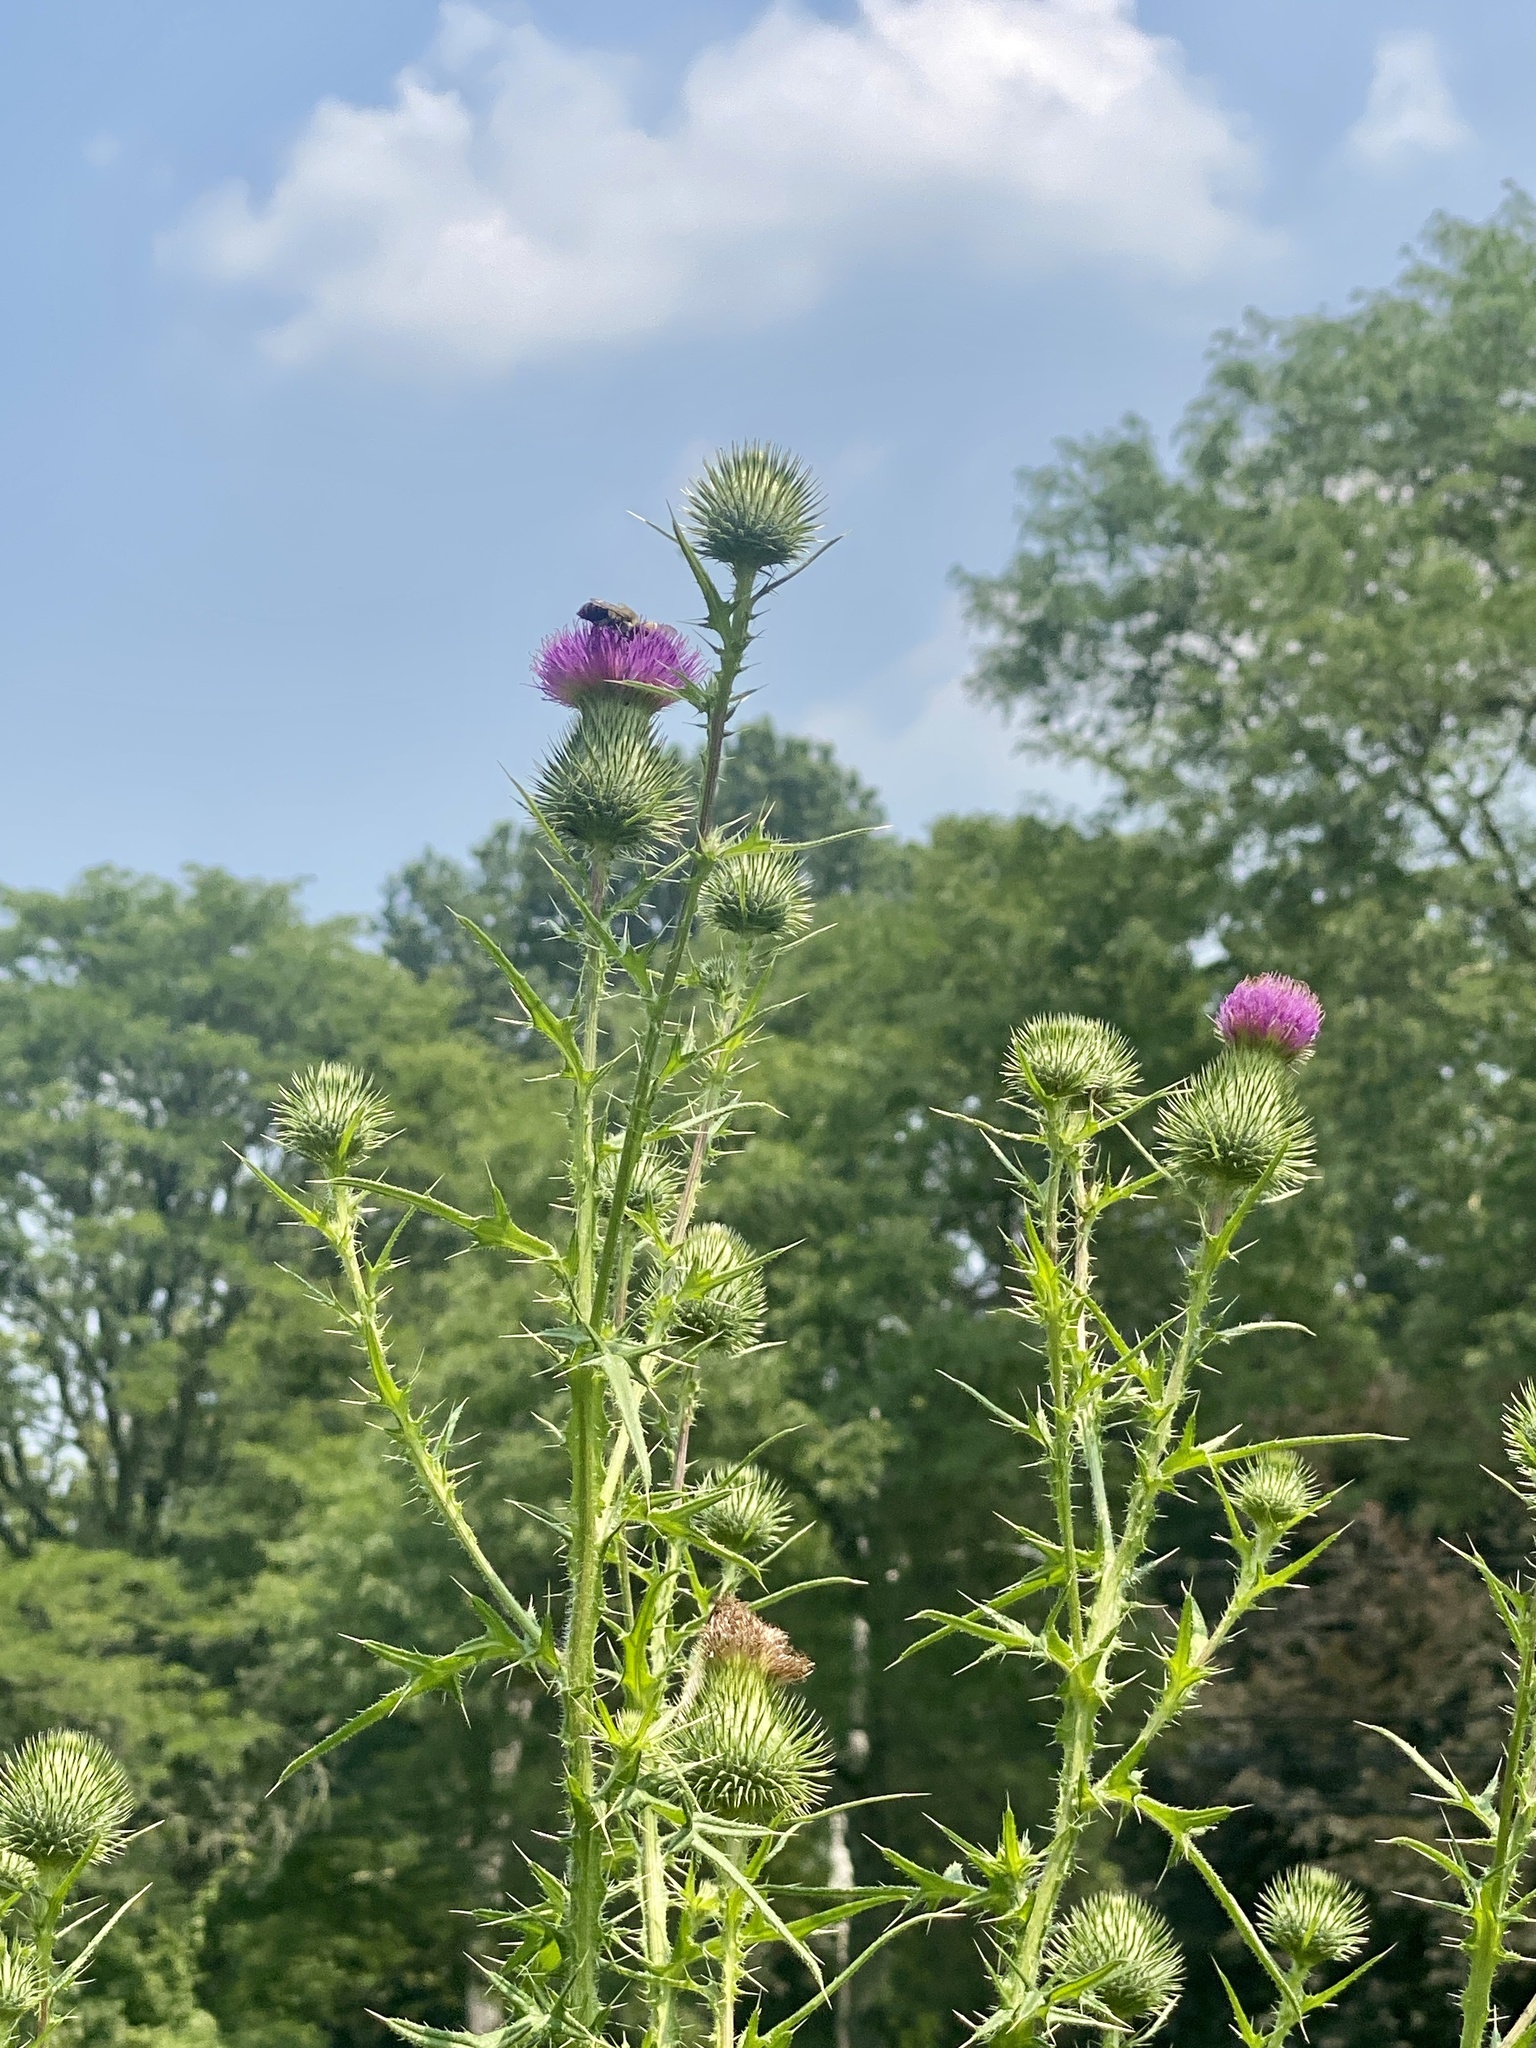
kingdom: Plantae
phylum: Tracheophyta
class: Magnoliopsida
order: Asterales
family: Asteraceae
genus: Cirsium
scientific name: Cirsium vulgare
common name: Bull thistle
